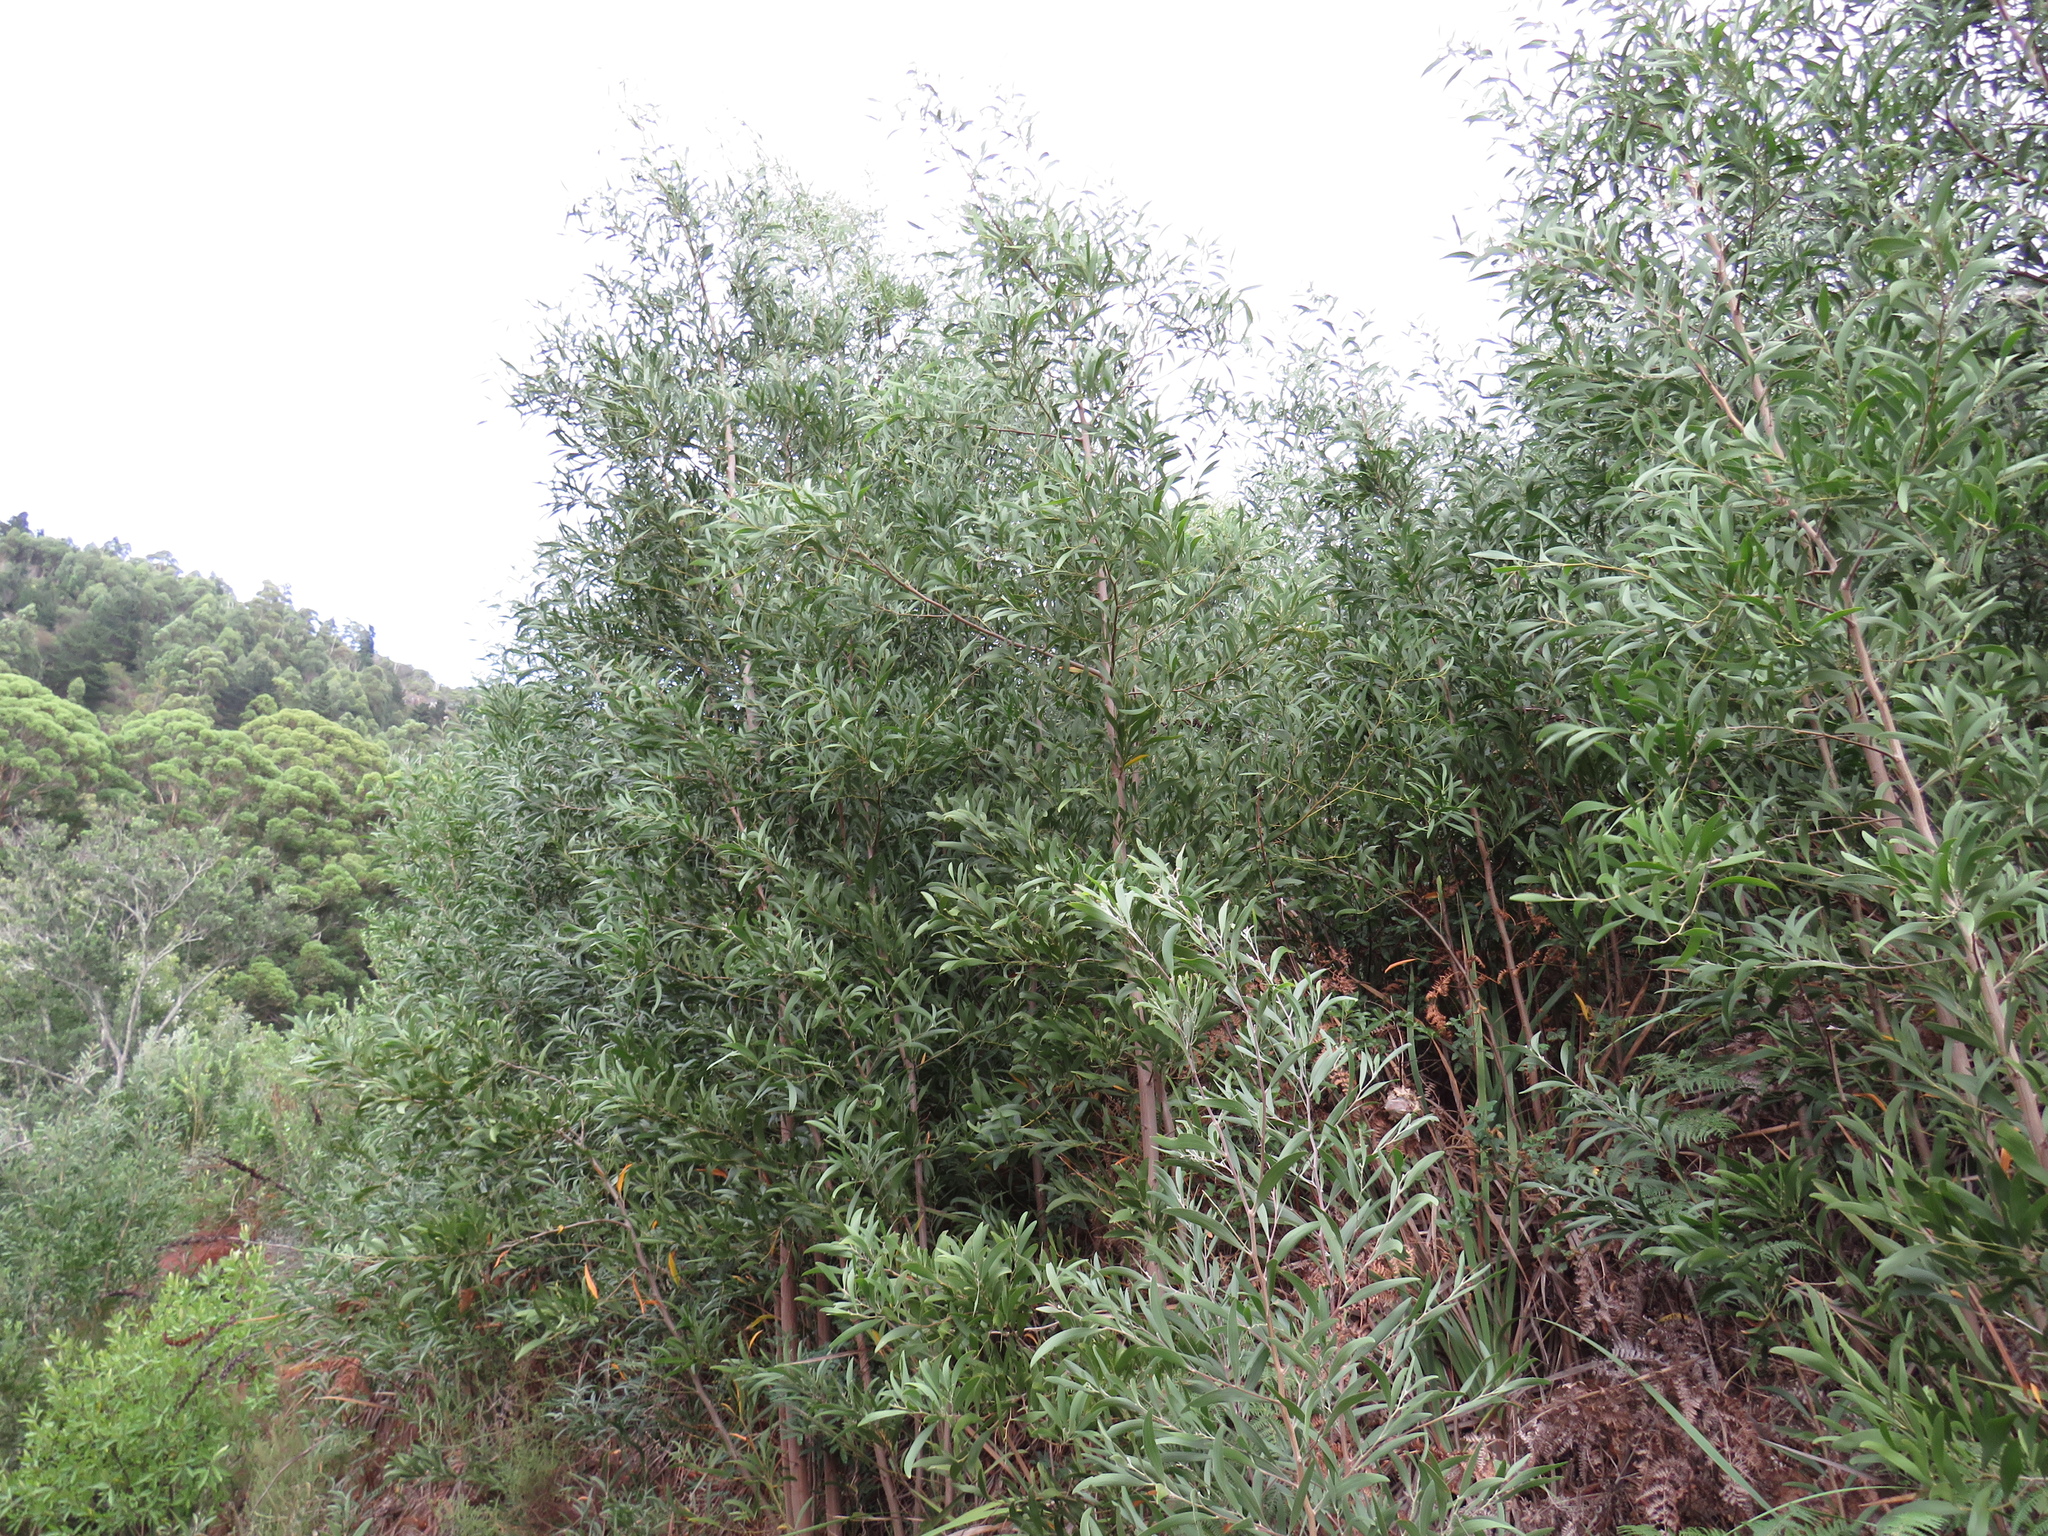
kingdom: Plantae
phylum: Tracheophyta
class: Magnoliopsida
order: Fabales
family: Fabaceae
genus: Acacia
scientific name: Acacia melanoxylon
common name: Blackwood
